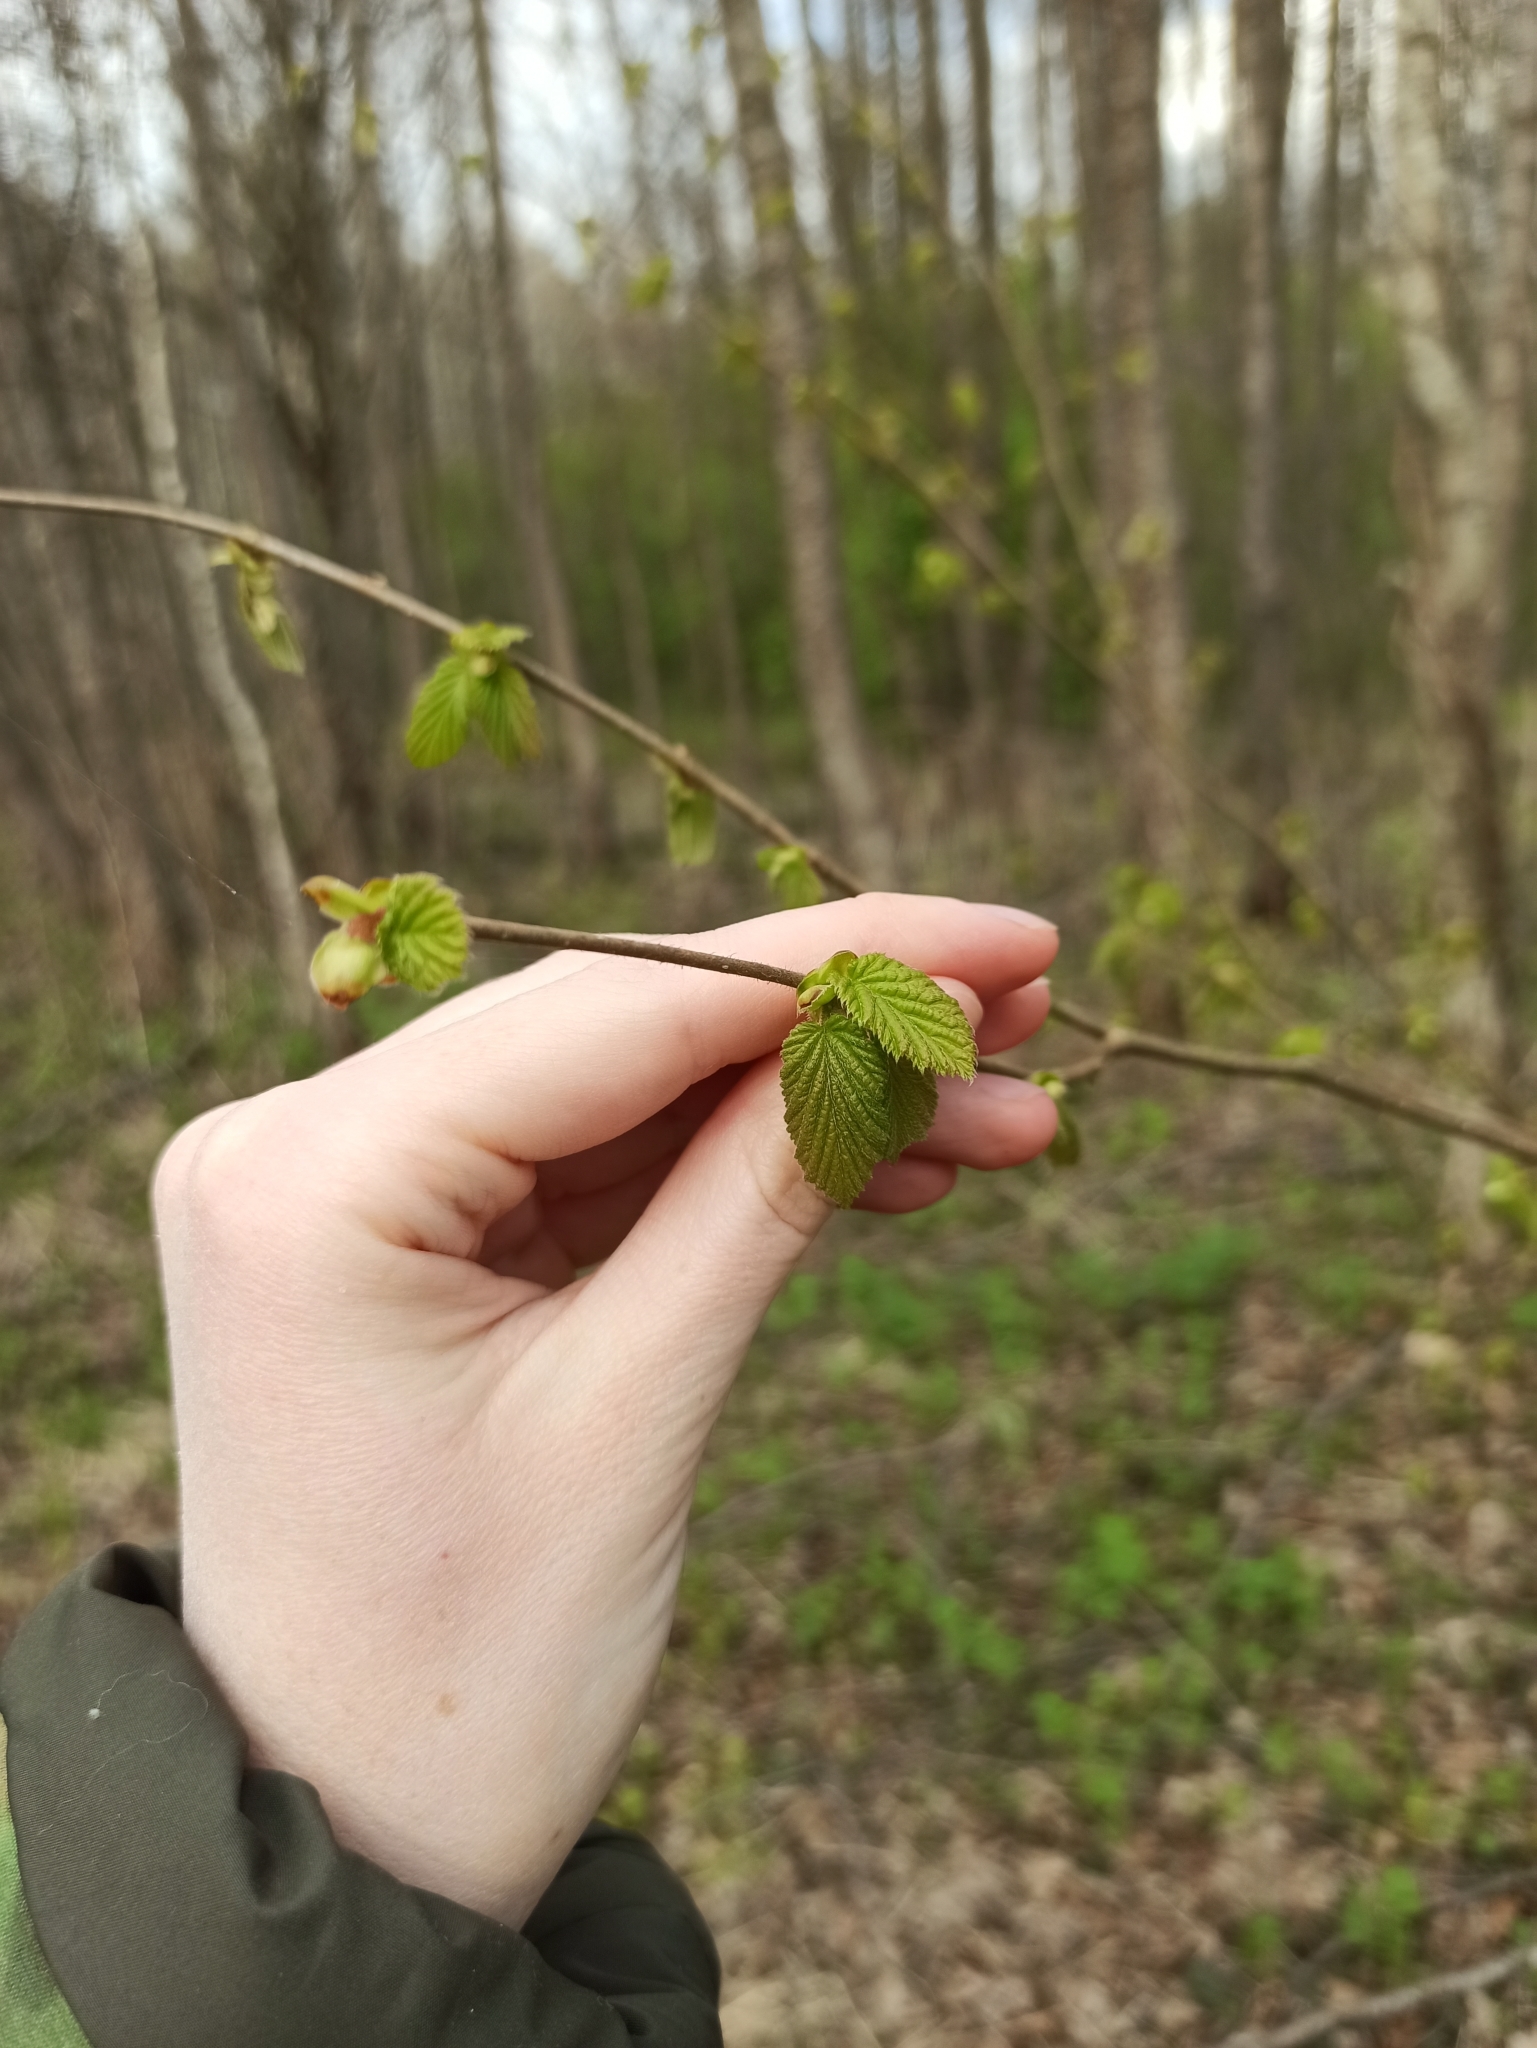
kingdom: Plantae
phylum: Tracheophyta
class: Magnoliopsida
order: Fagales
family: Betulaceae
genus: Corylus
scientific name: Corylus avellana
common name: European hazel
